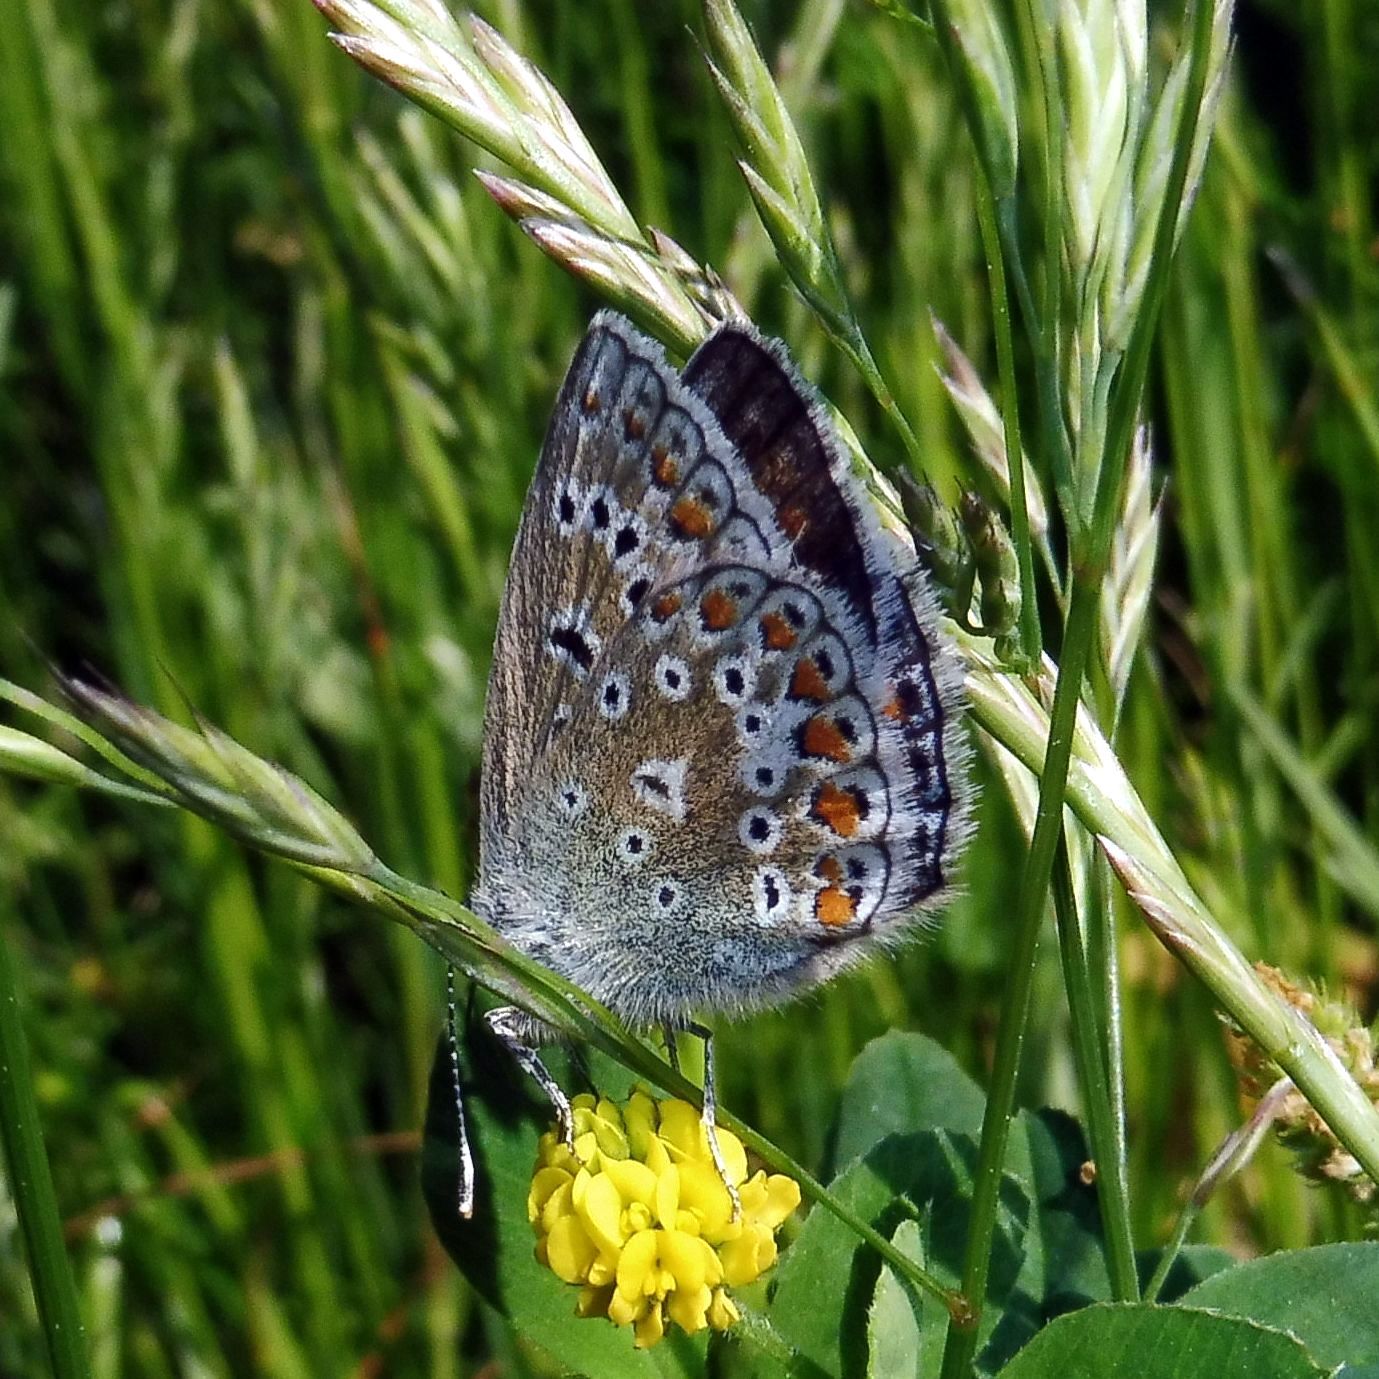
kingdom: Animalia
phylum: Arthropoda
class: Insecta
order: Lepidoptera
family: Lycaenidae
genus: Polyommatus
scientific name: Polyommatus icarus
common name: Common blue
